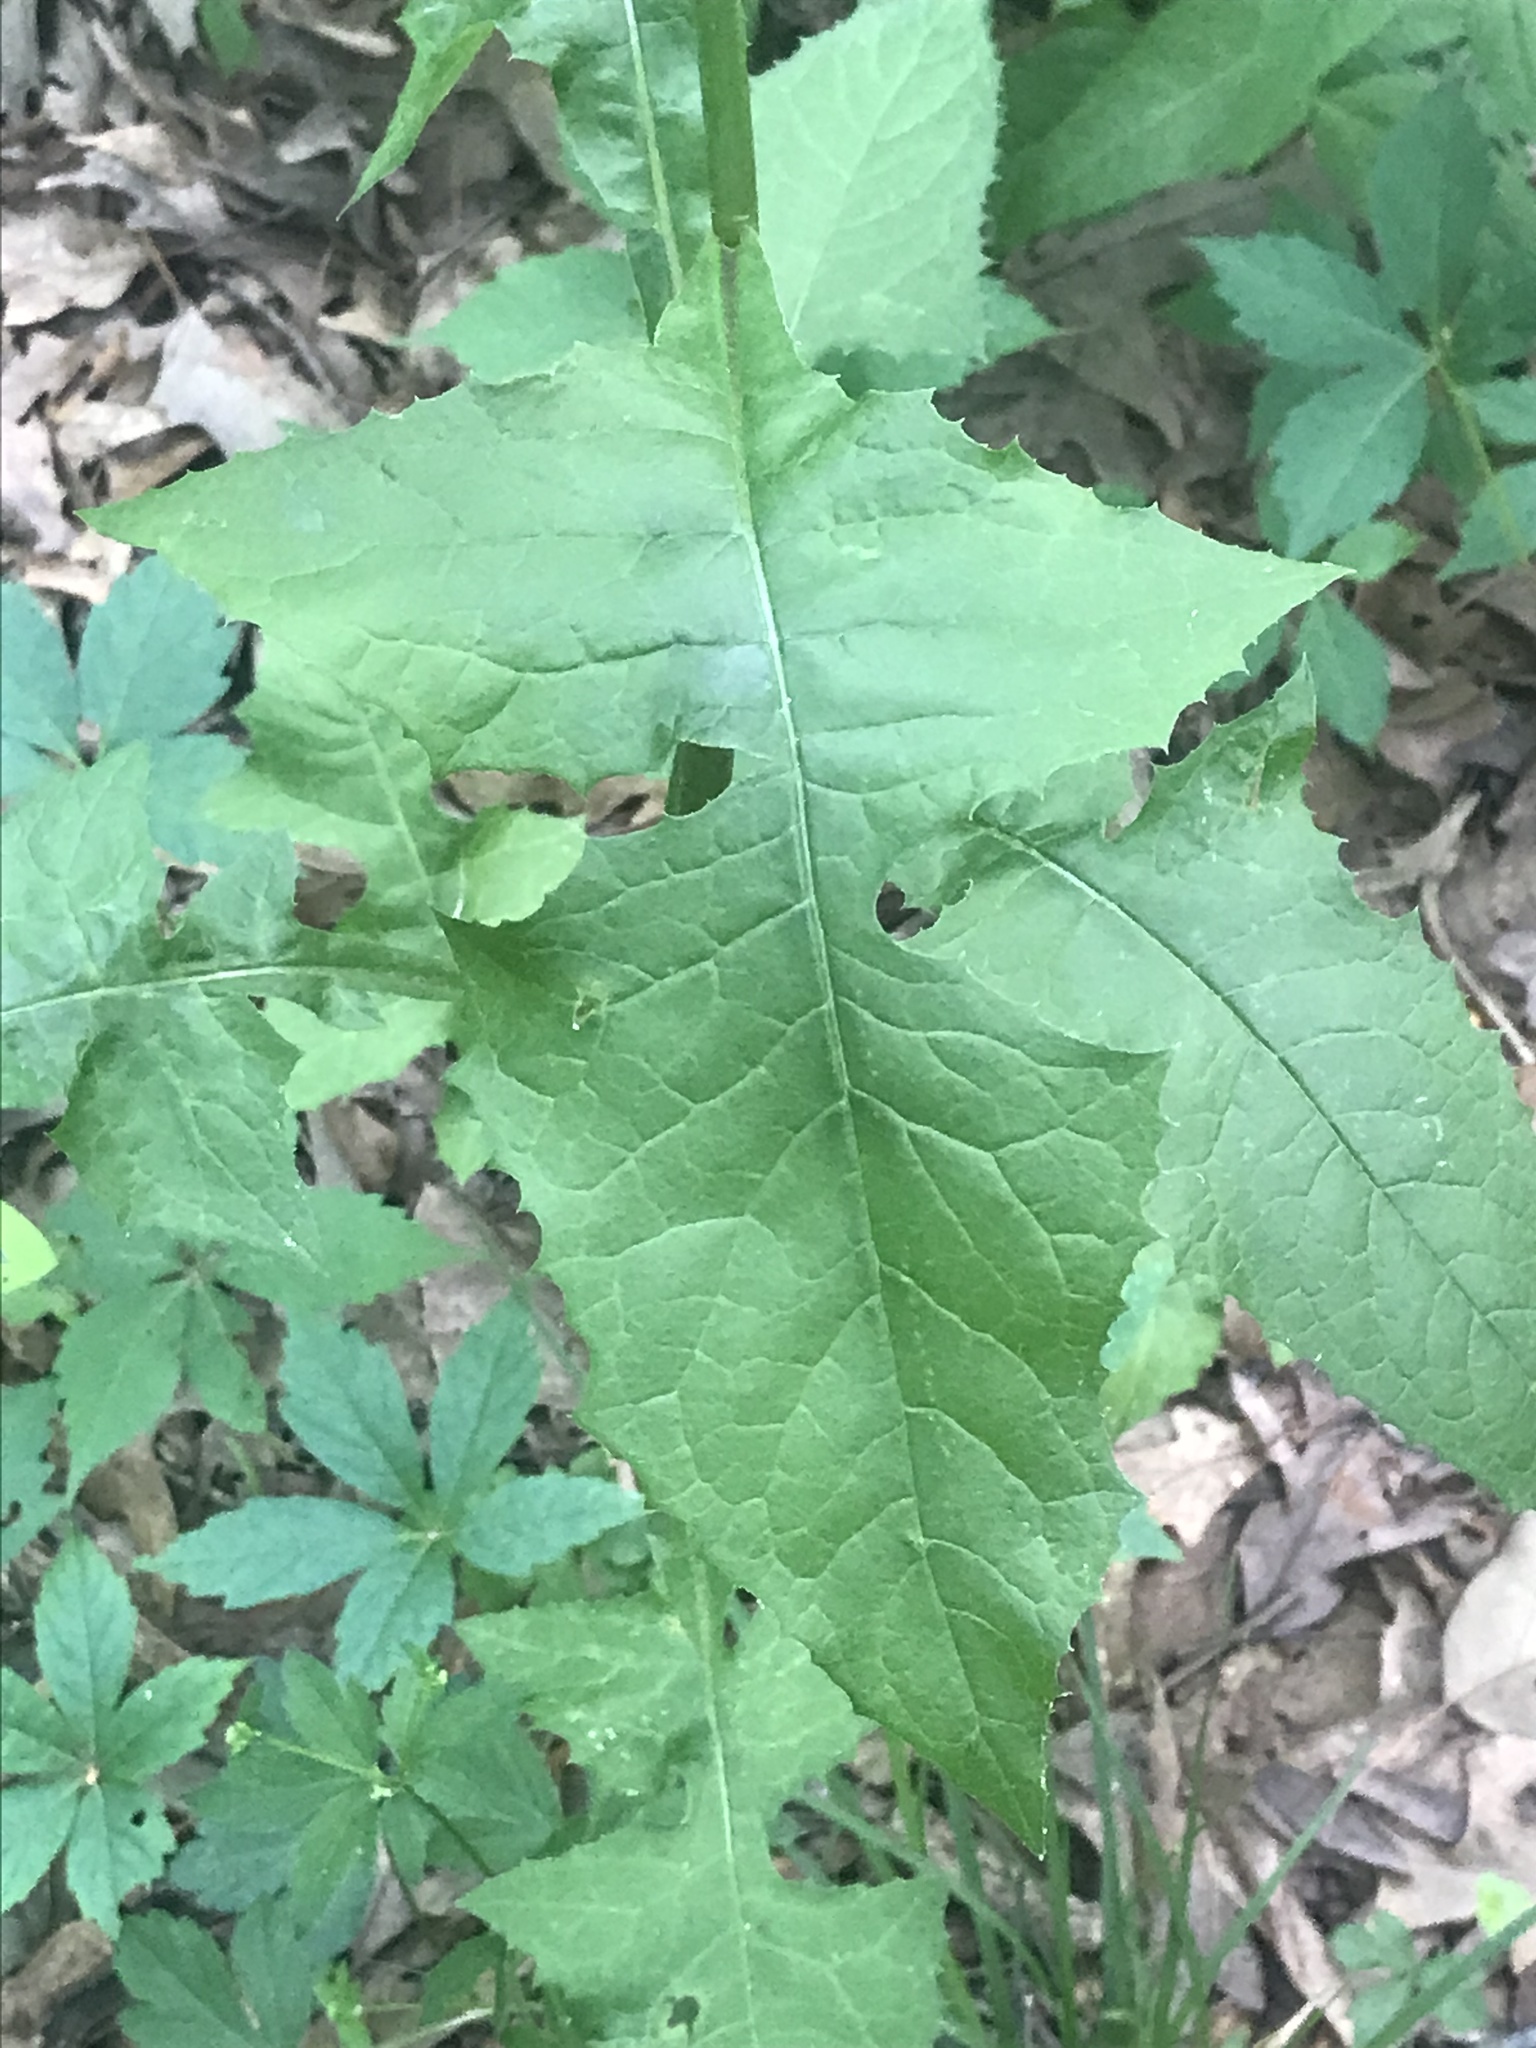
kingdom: Plantae
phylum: Tracheophyta
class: Magnoliopsida
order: Asterales
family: Asteraceae
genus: Lactuca
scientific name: Lactuca floridana
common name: Woodland lettuce
